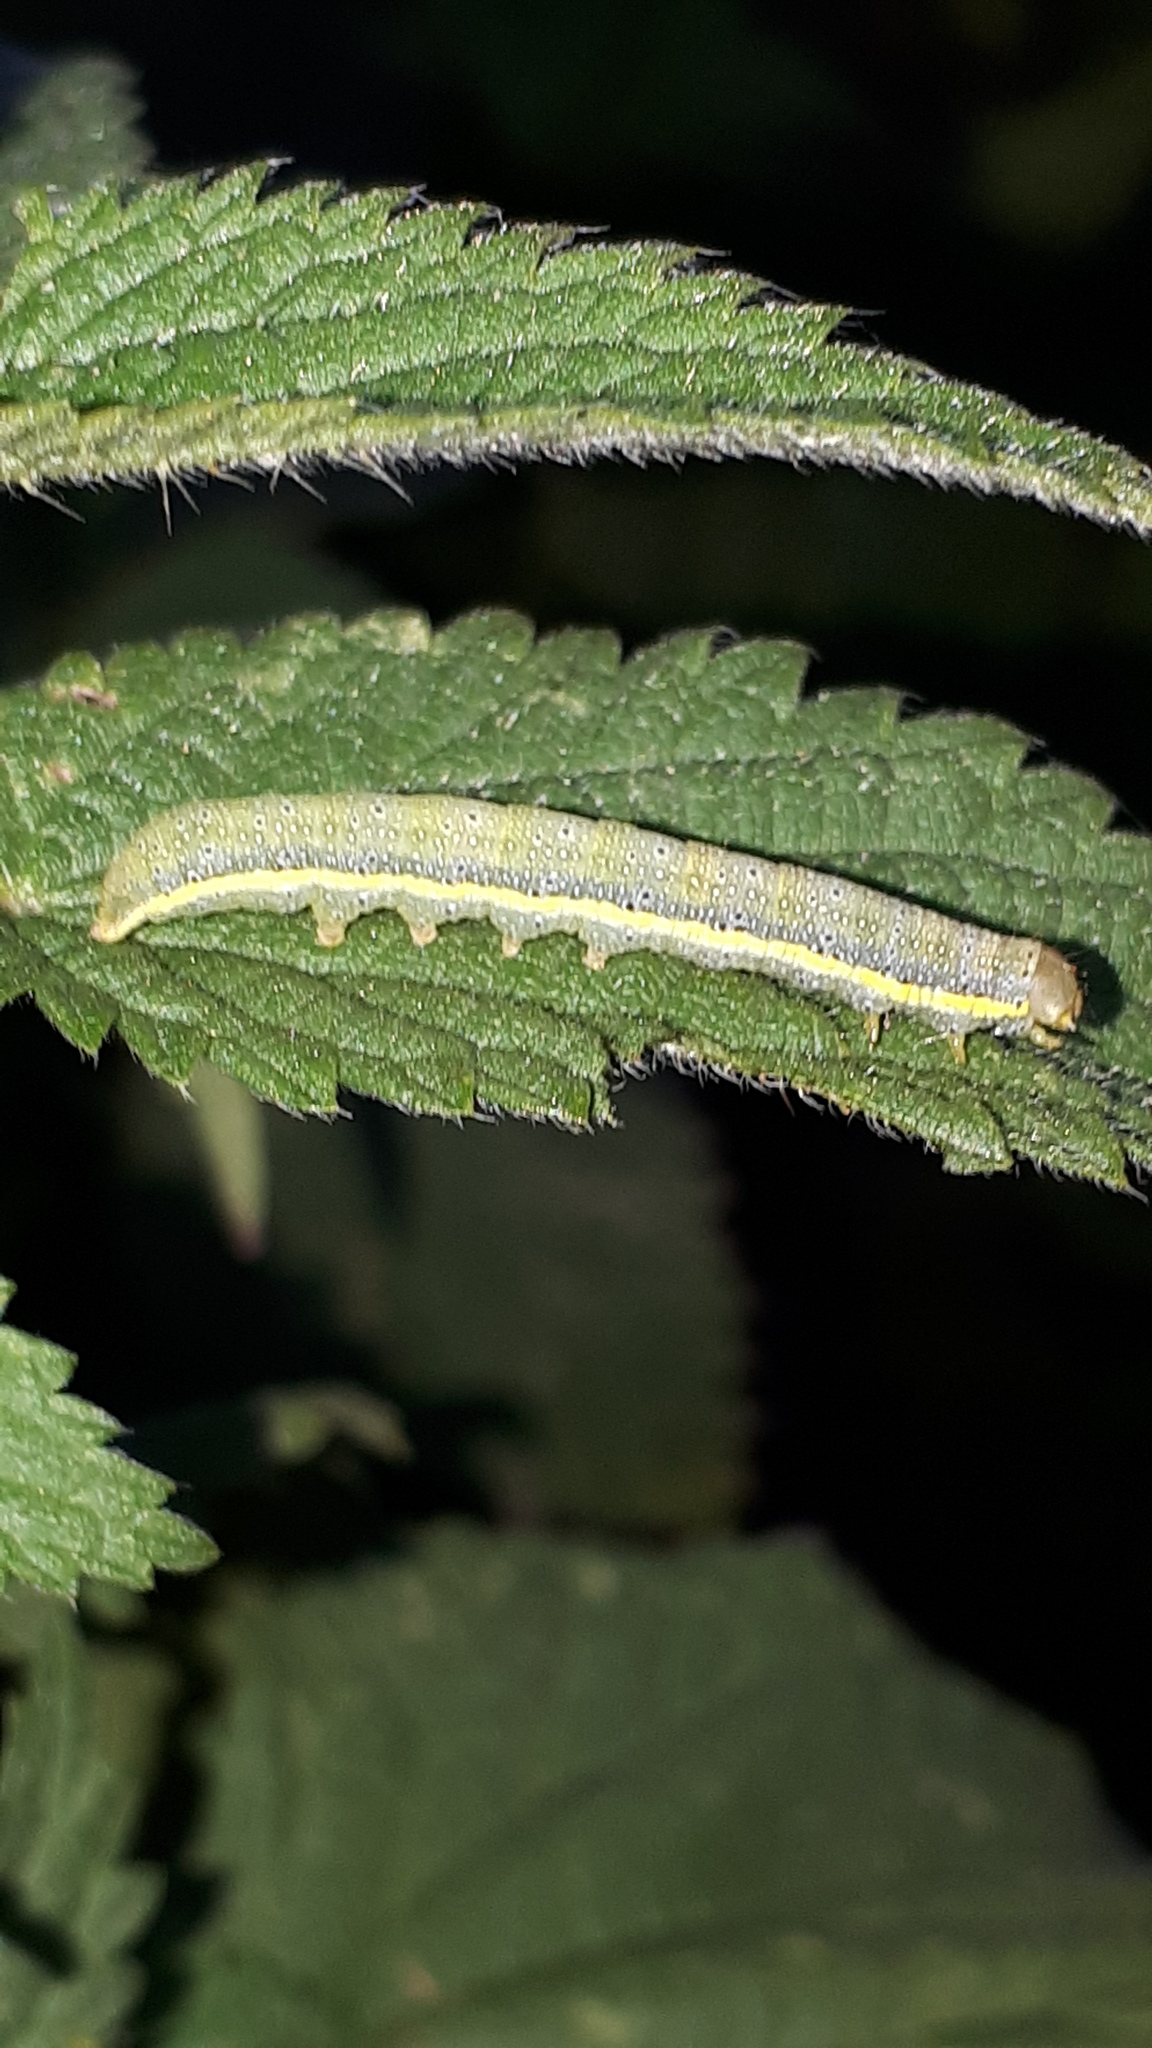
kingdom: Animalia
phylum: Arthropoda
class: Insecta
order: Lepidoptera
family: Noctuidae
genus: Lacanobia
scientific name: Lacanobia oleracea
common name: Bright-line brown-eye
